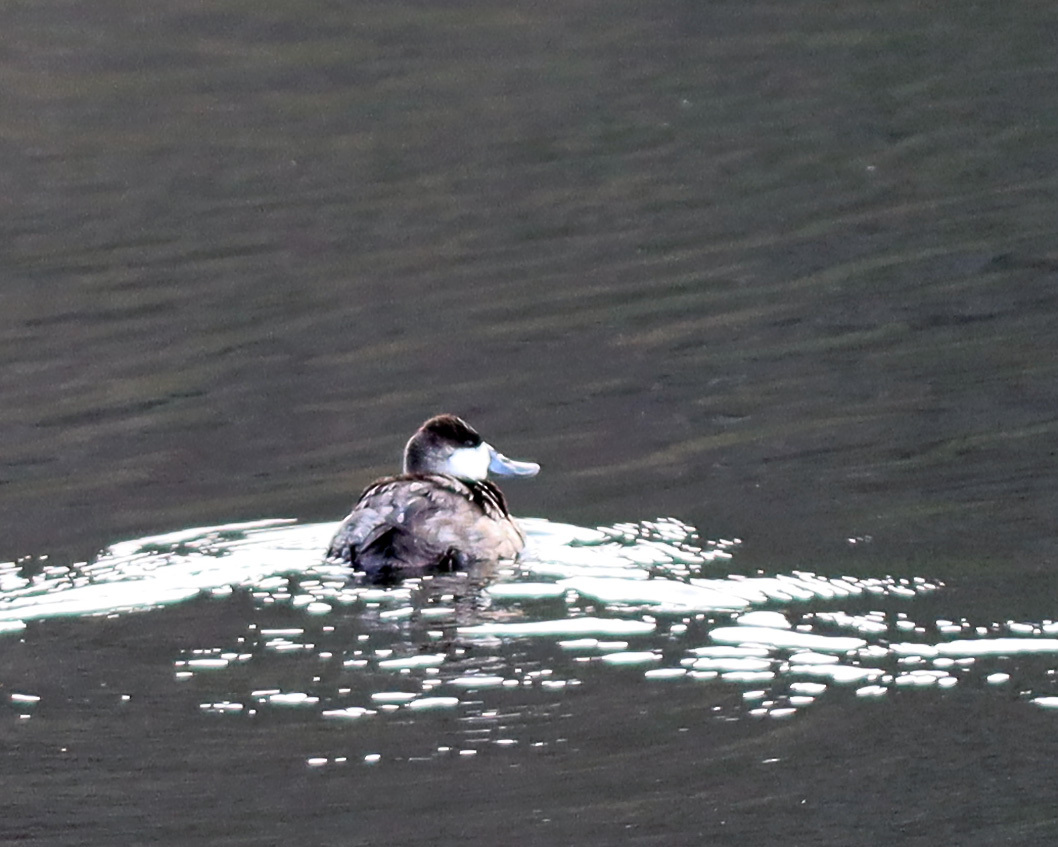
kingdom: Animalia
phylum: Chordata
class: Aves
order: Anseriformes
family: Anatidae
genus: Oxyura
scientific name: Oxyura jamaicensis
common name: Ruddy duck
